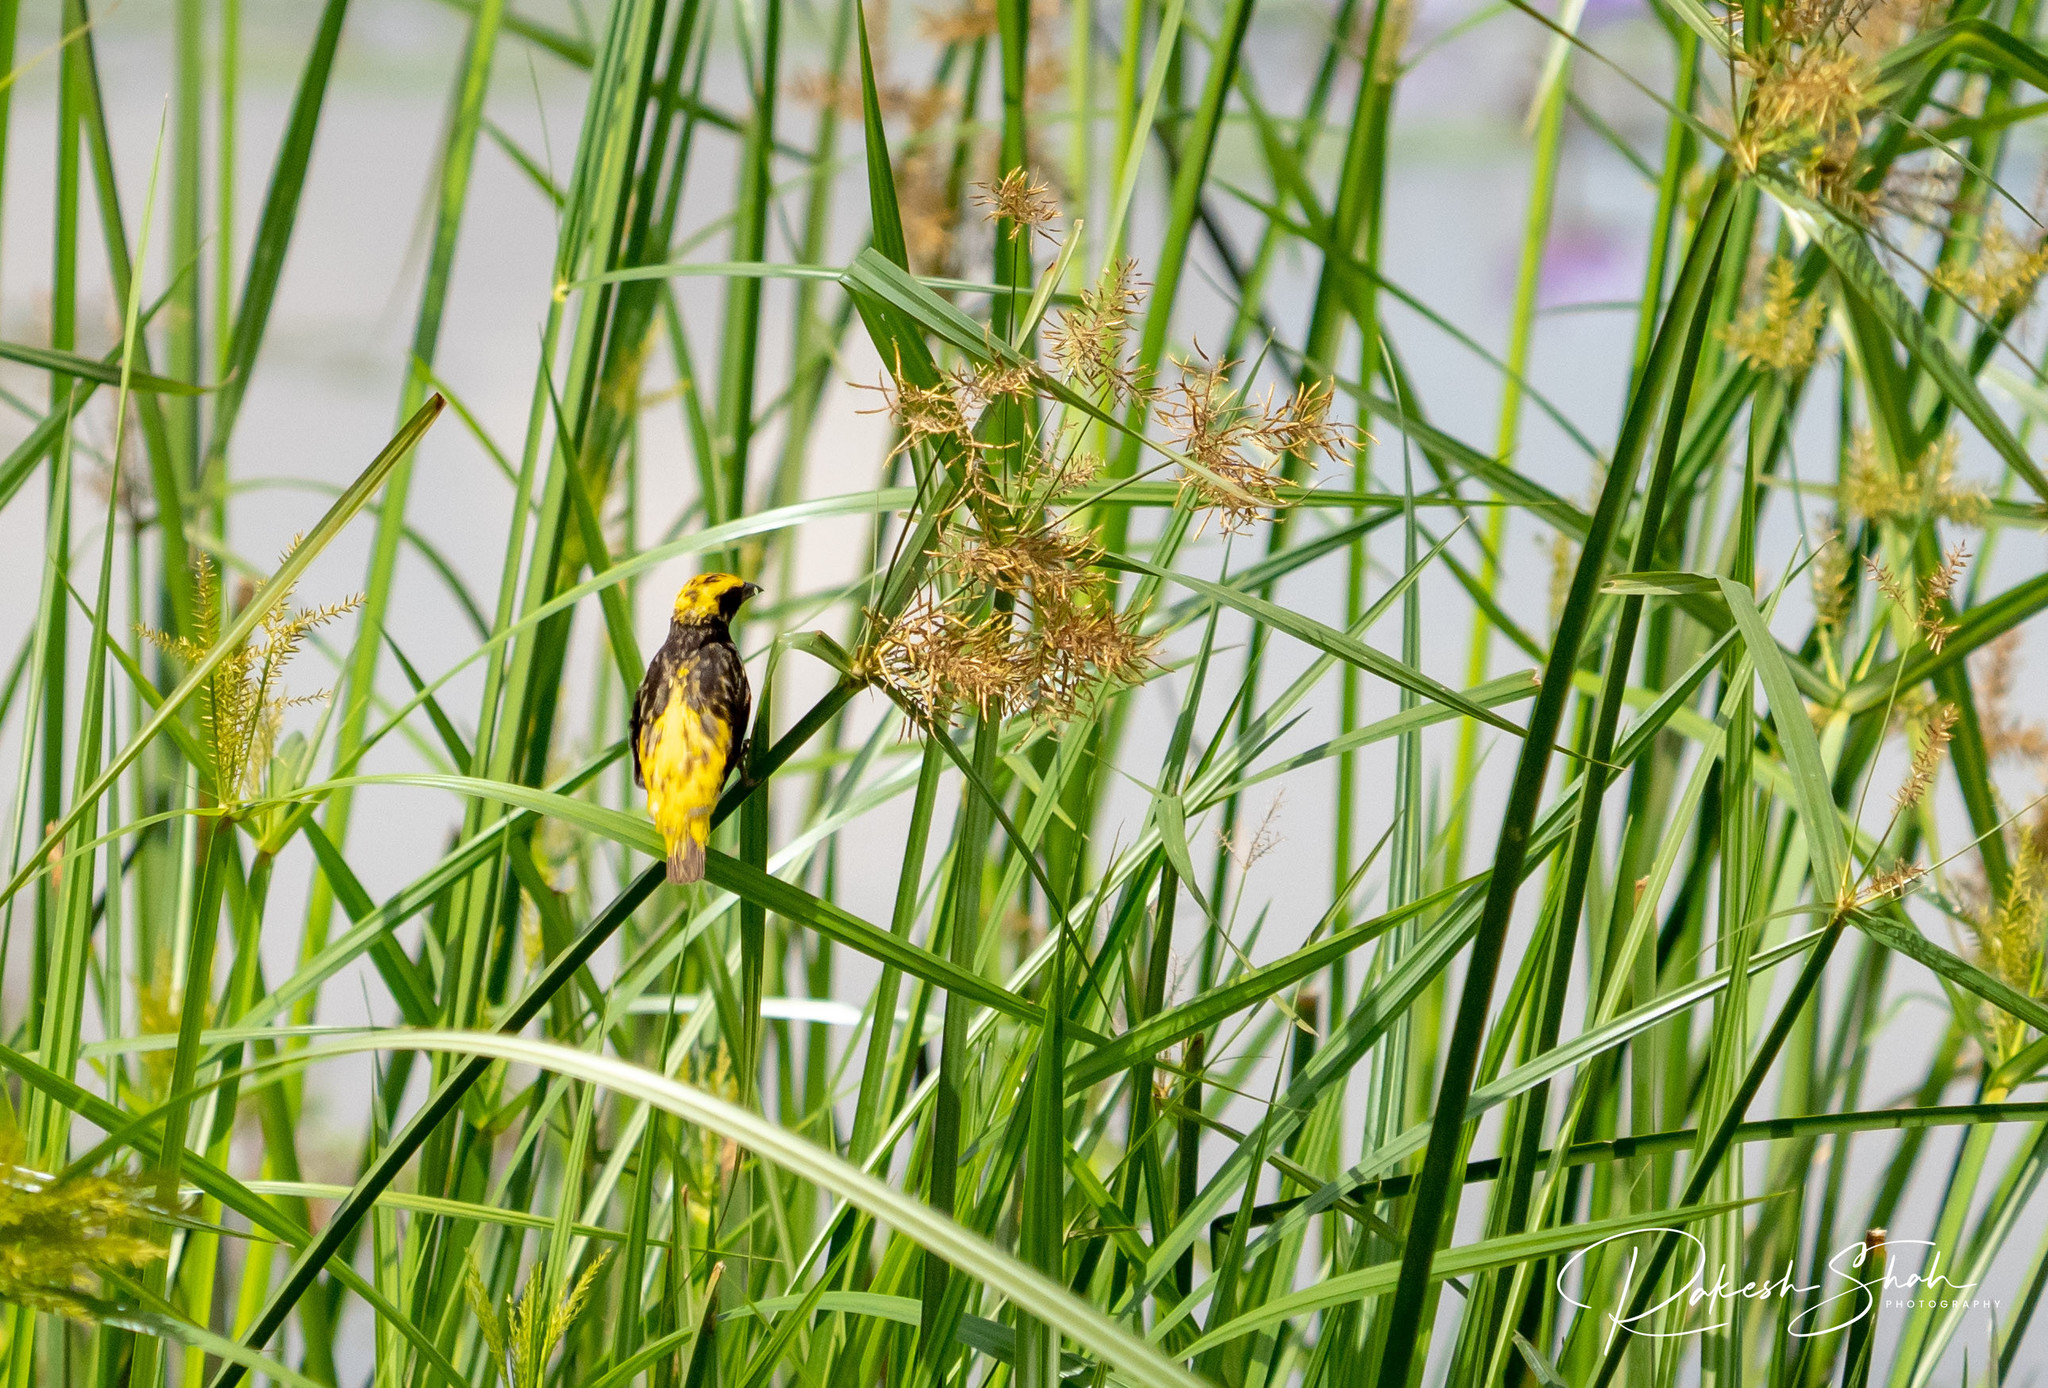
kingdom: Animalia
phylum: Chordata
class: Aves
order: Passeriformes
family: Ploceidae
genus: Euplectes
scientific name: Euplectes afer
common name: Yellow-crowned bishop
